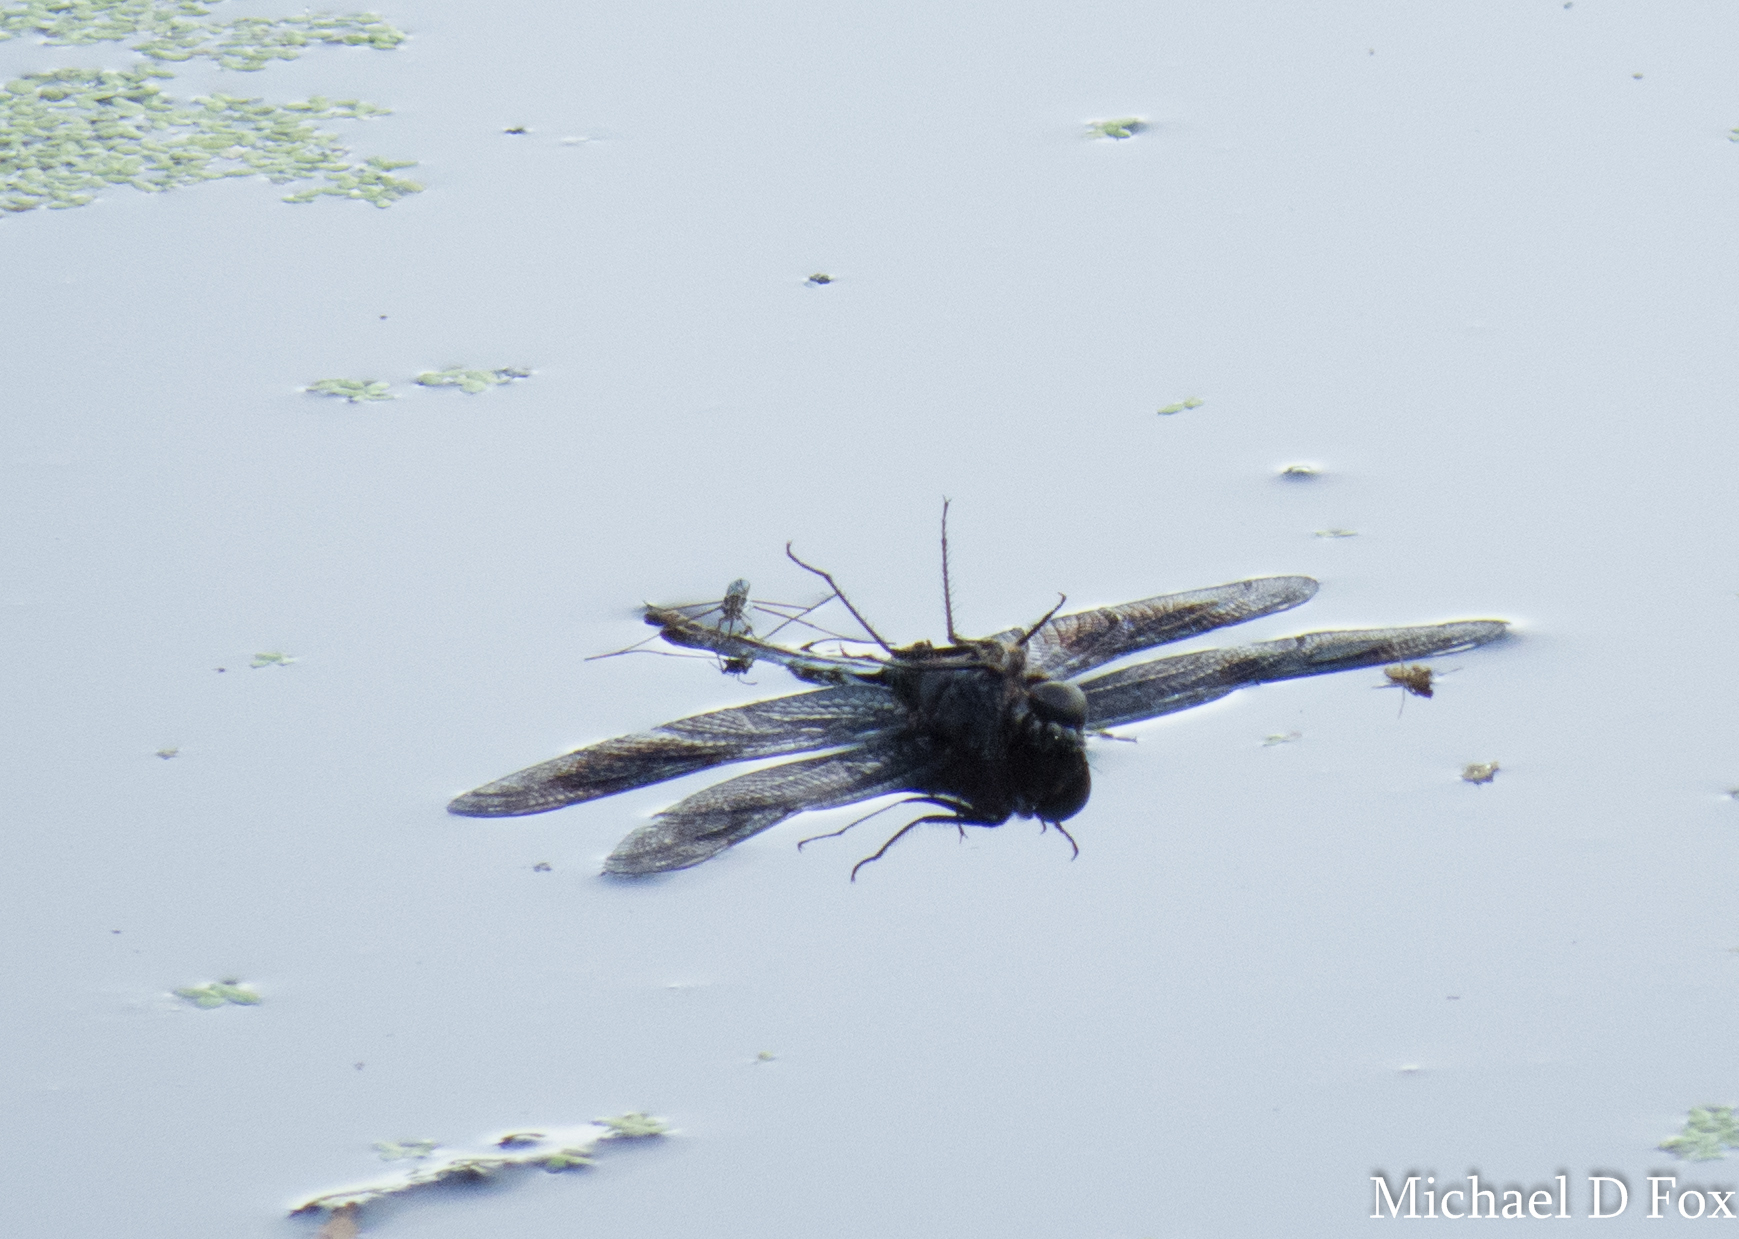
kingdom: Animalia
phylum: Arthropoda
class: Insecta
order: Odonata
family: Libellulidae
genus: Brachymesia
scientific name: Brachymesia gravida
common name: Four-spotted pennant
